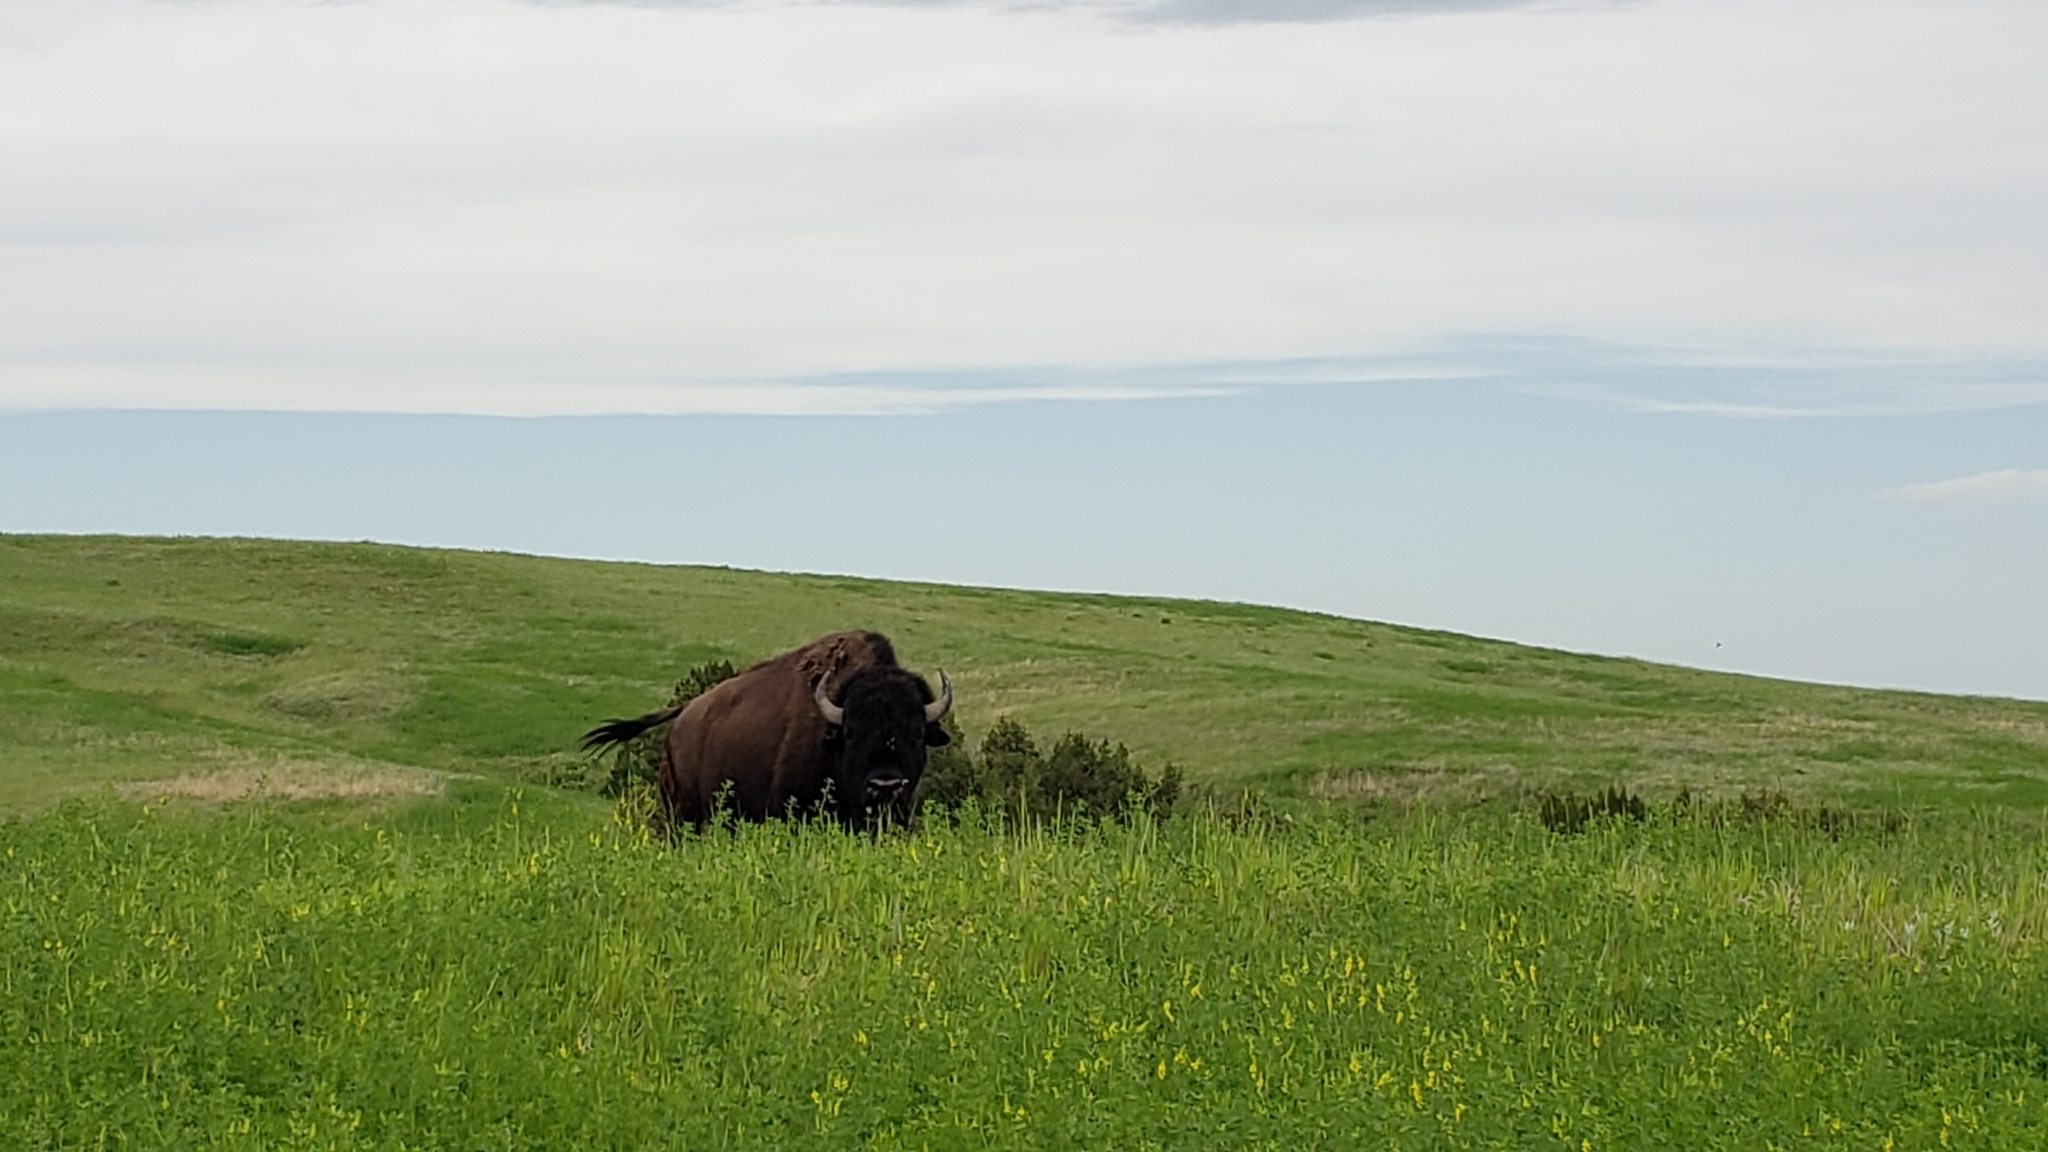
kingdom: Animalia
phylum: Chordata
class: Mammalia
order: Artiodactyla
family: Bovidae
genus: Bison
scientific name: Bison bison
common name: American bison
